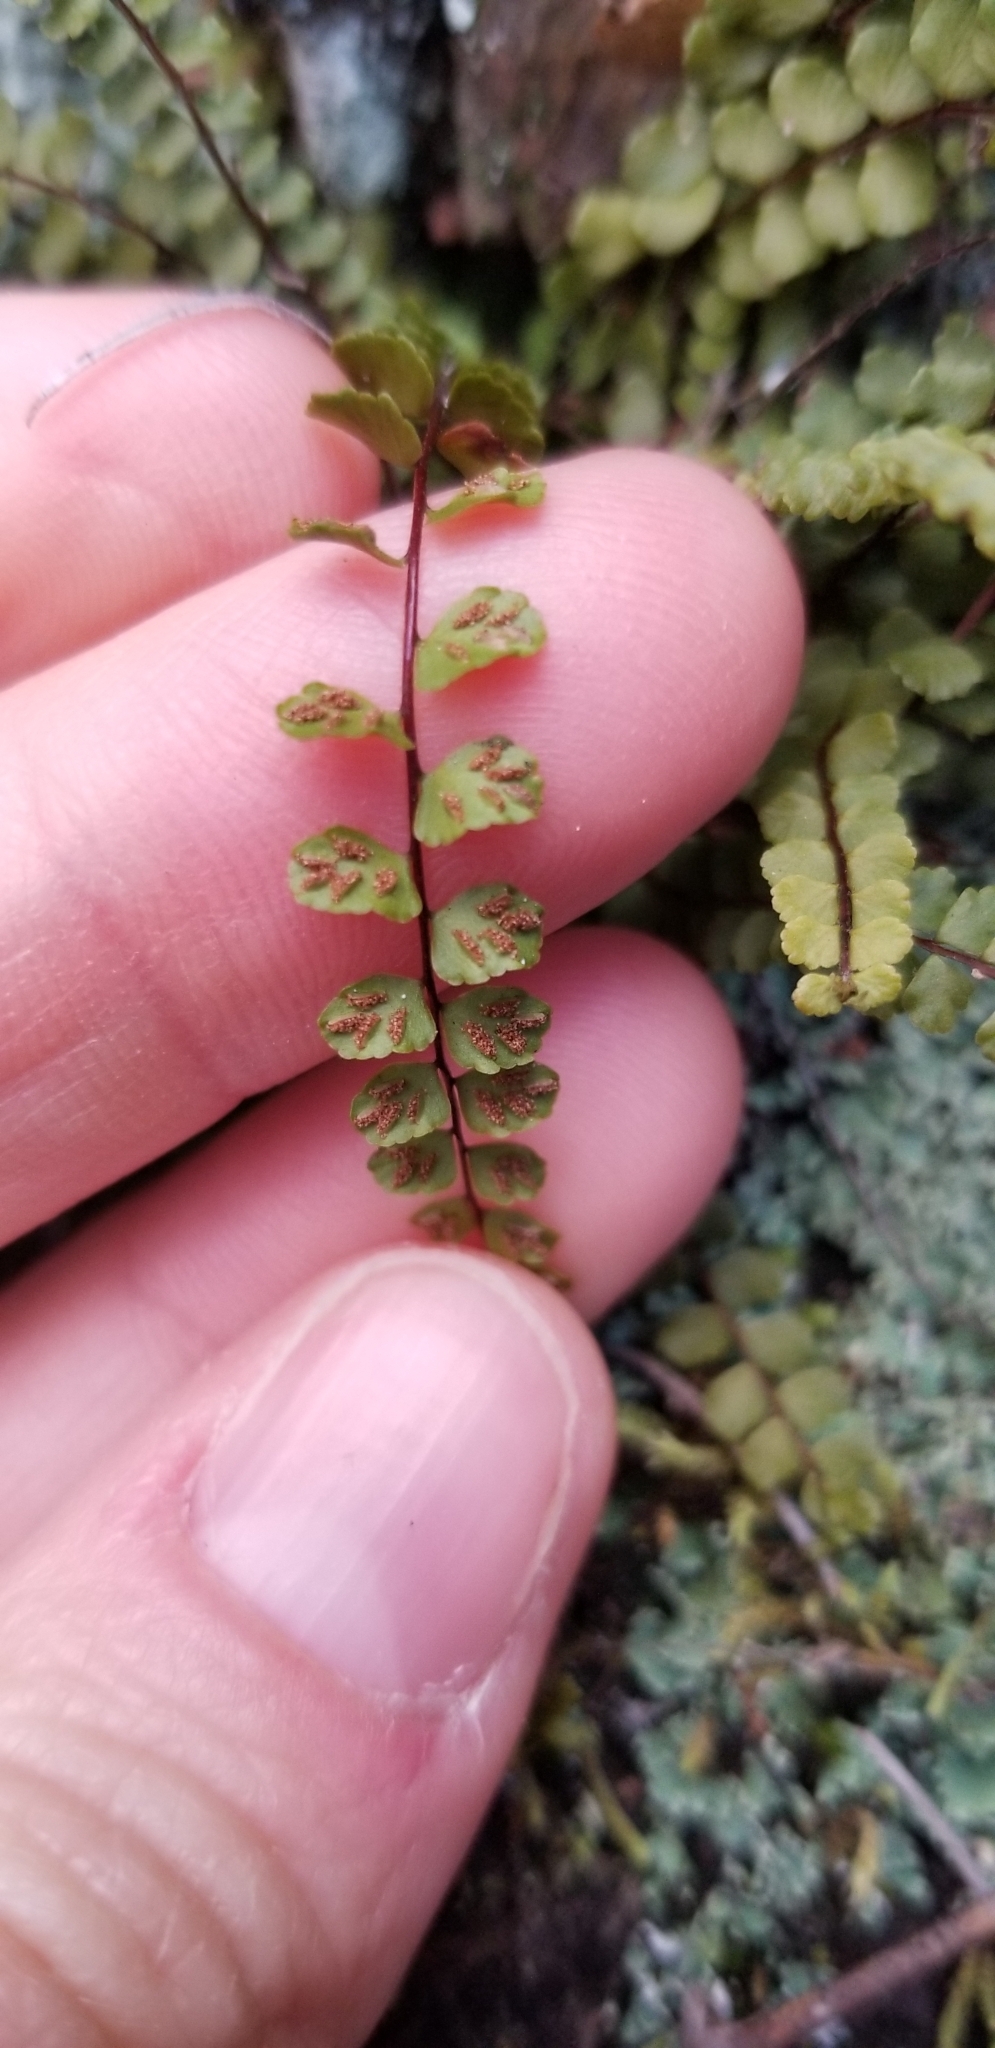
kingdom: Plantae
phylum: Tracheophyta
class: Polypodiopsida
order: Polypodiales
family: Aspleniaceae
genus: Asplenium
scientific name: Asplenium trichomanes
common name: Maidenhair spleenwort
